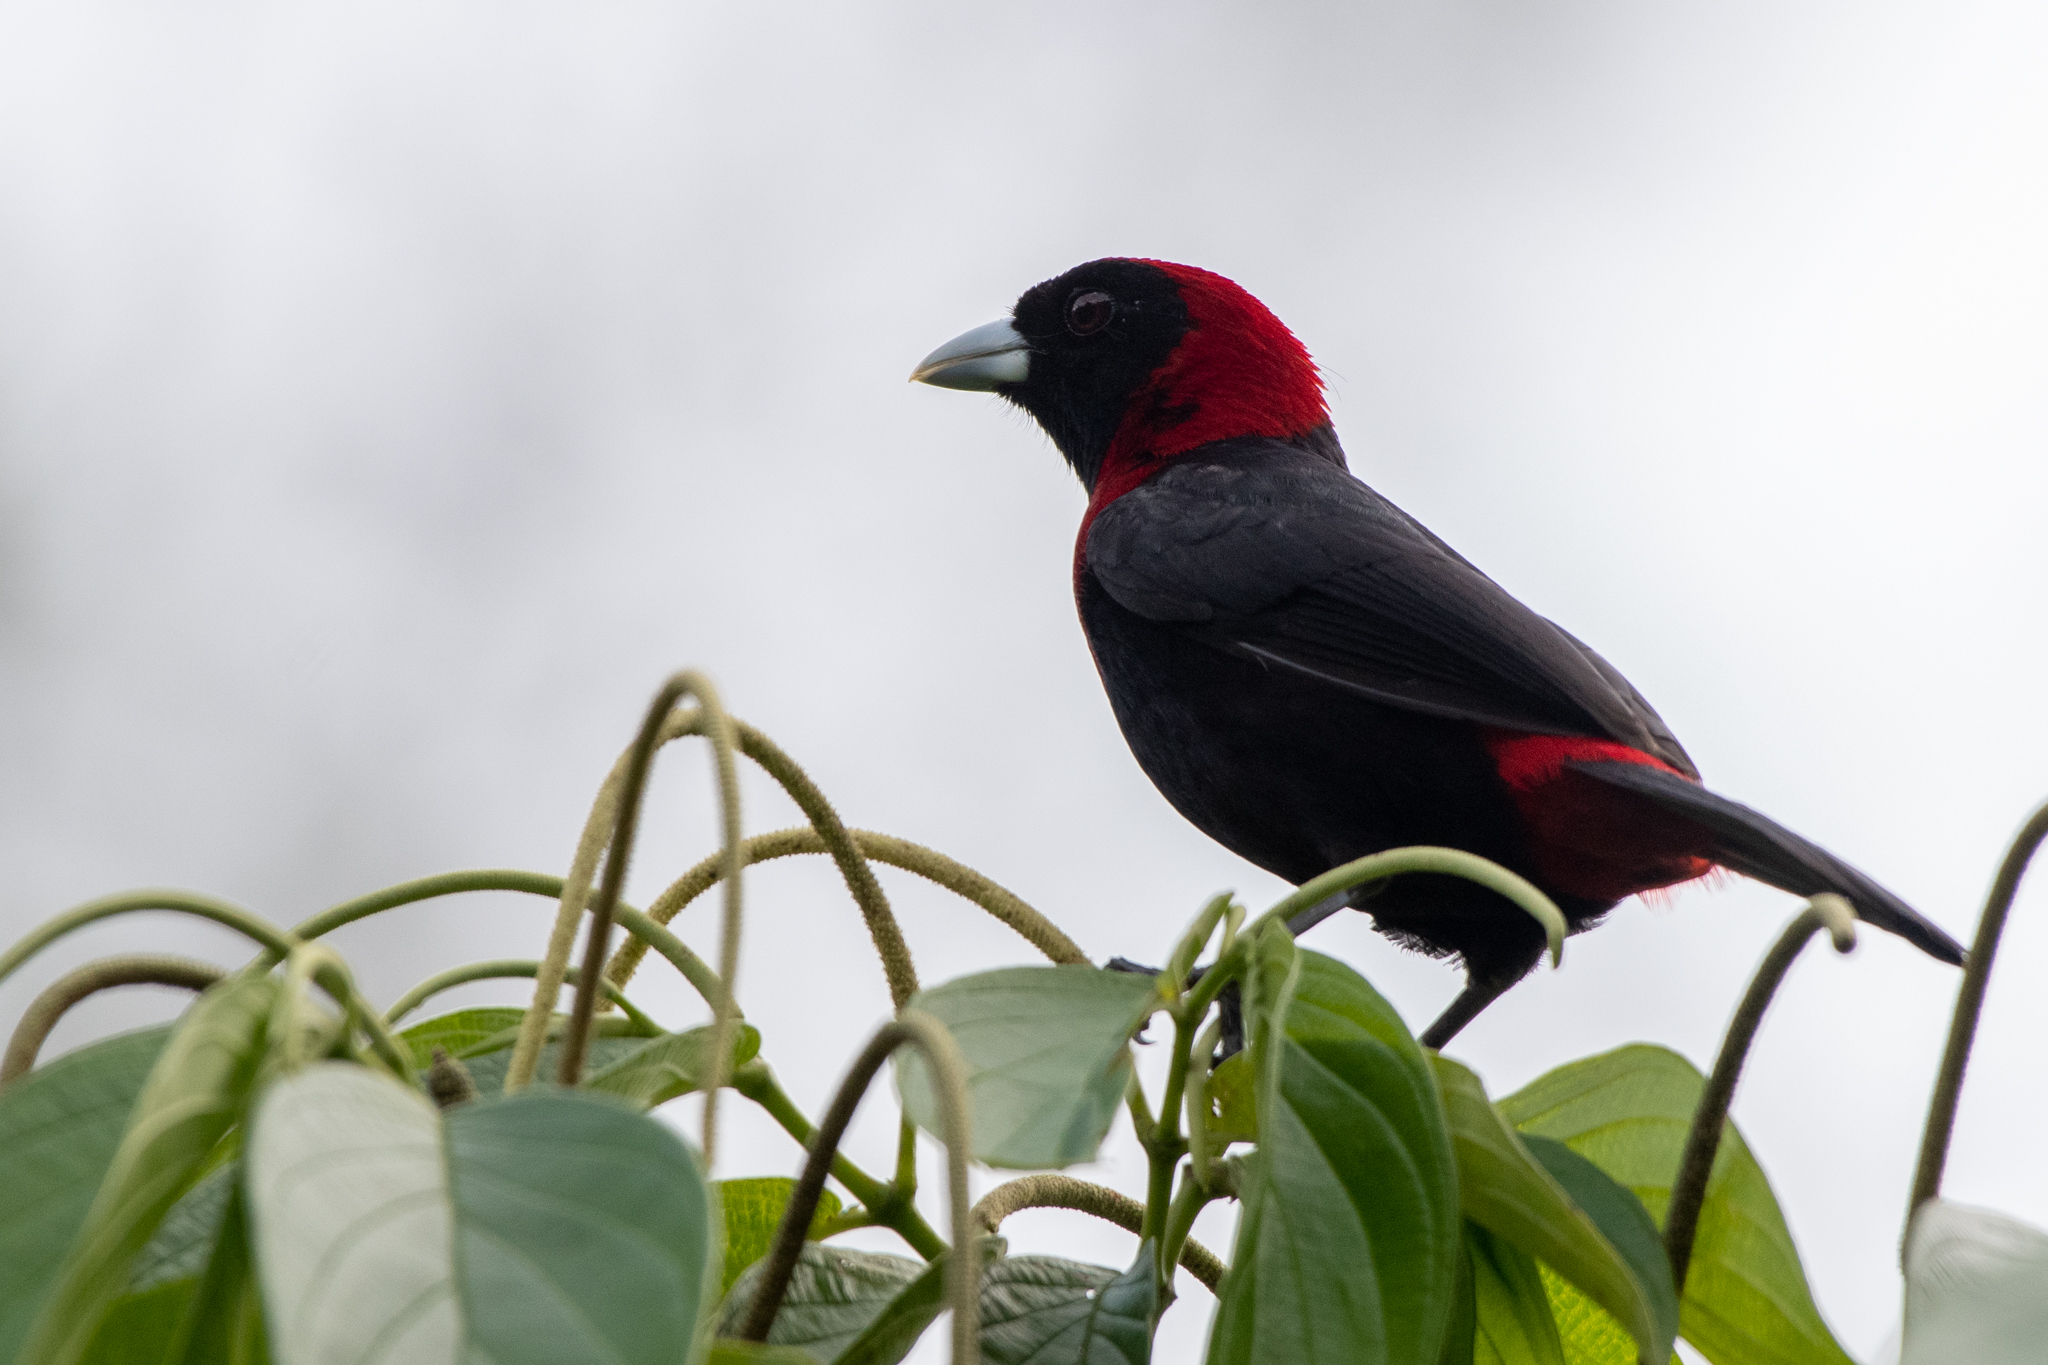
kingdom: Animalia
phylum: Chordata
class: Aves
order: Passeriformes
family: Thraupidae
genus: Ramphocelus
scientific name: Ramphocelus sanguinolentus
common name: Crimson-collared tanager
